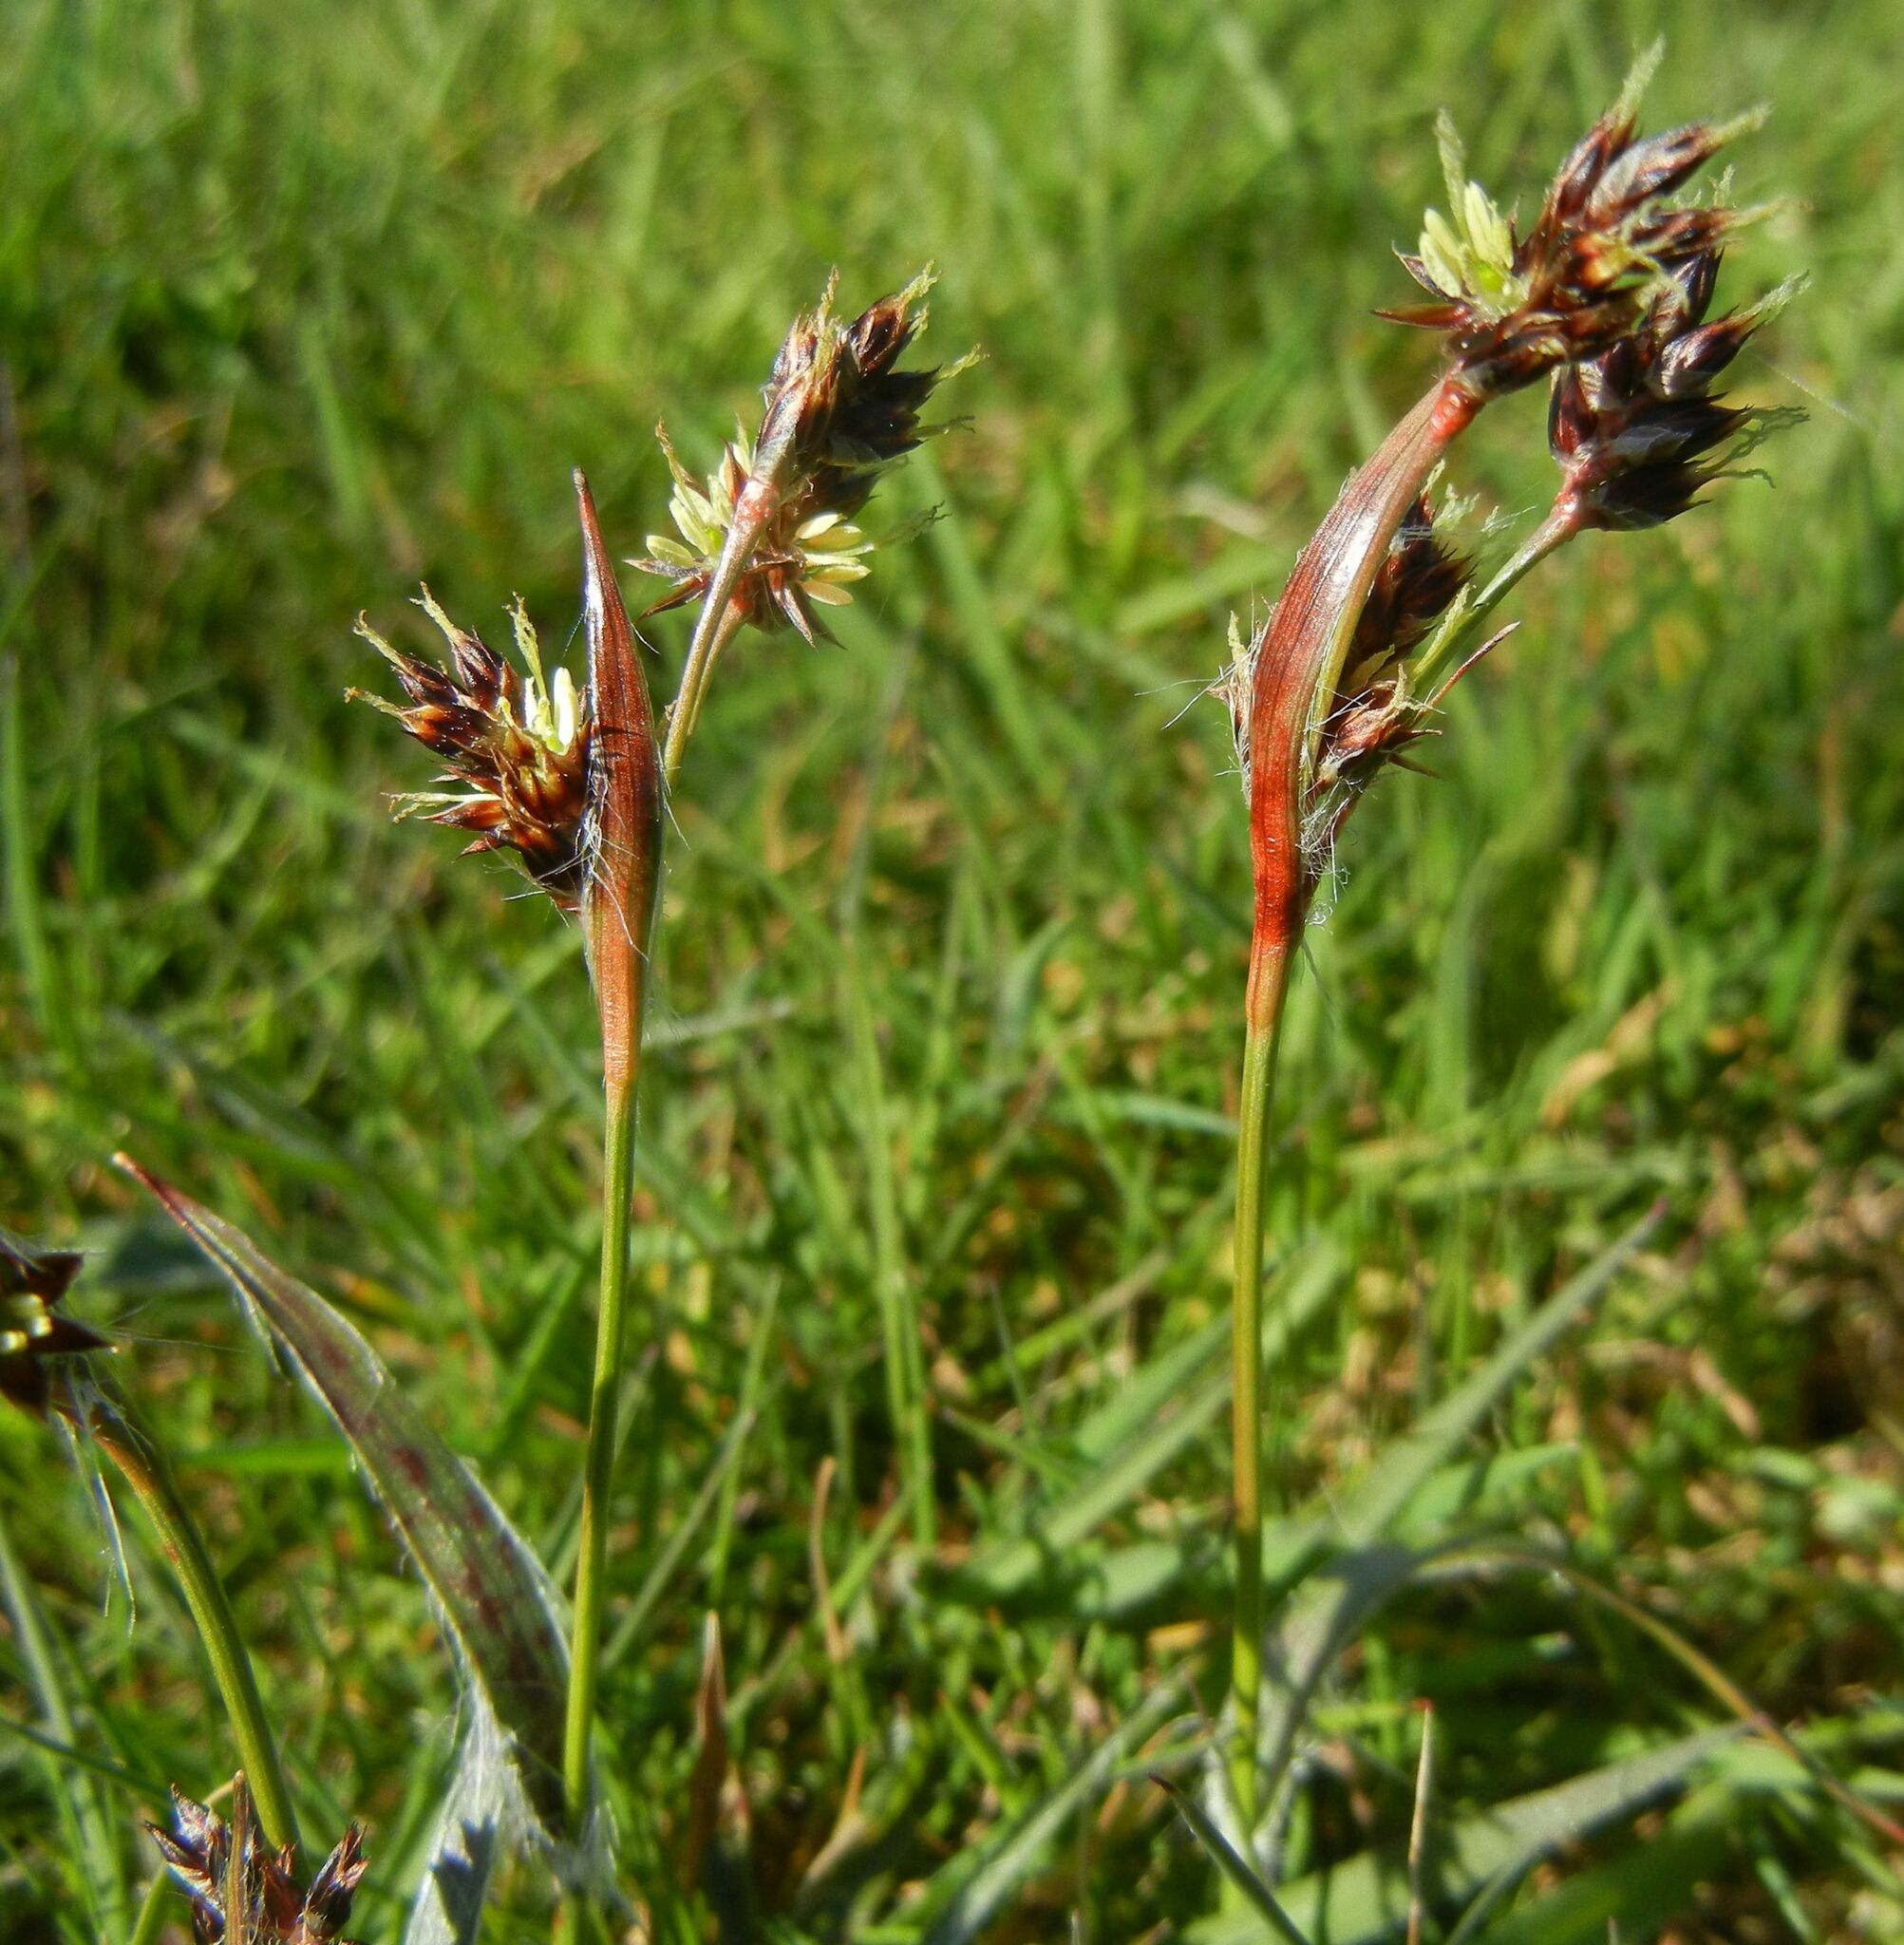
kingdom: Plantae
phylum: Tracheophyta
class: Liliopsida
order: Poales
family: Juncaceae
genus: Luzula
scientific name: Luzula campestris
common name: Field wood-rush
